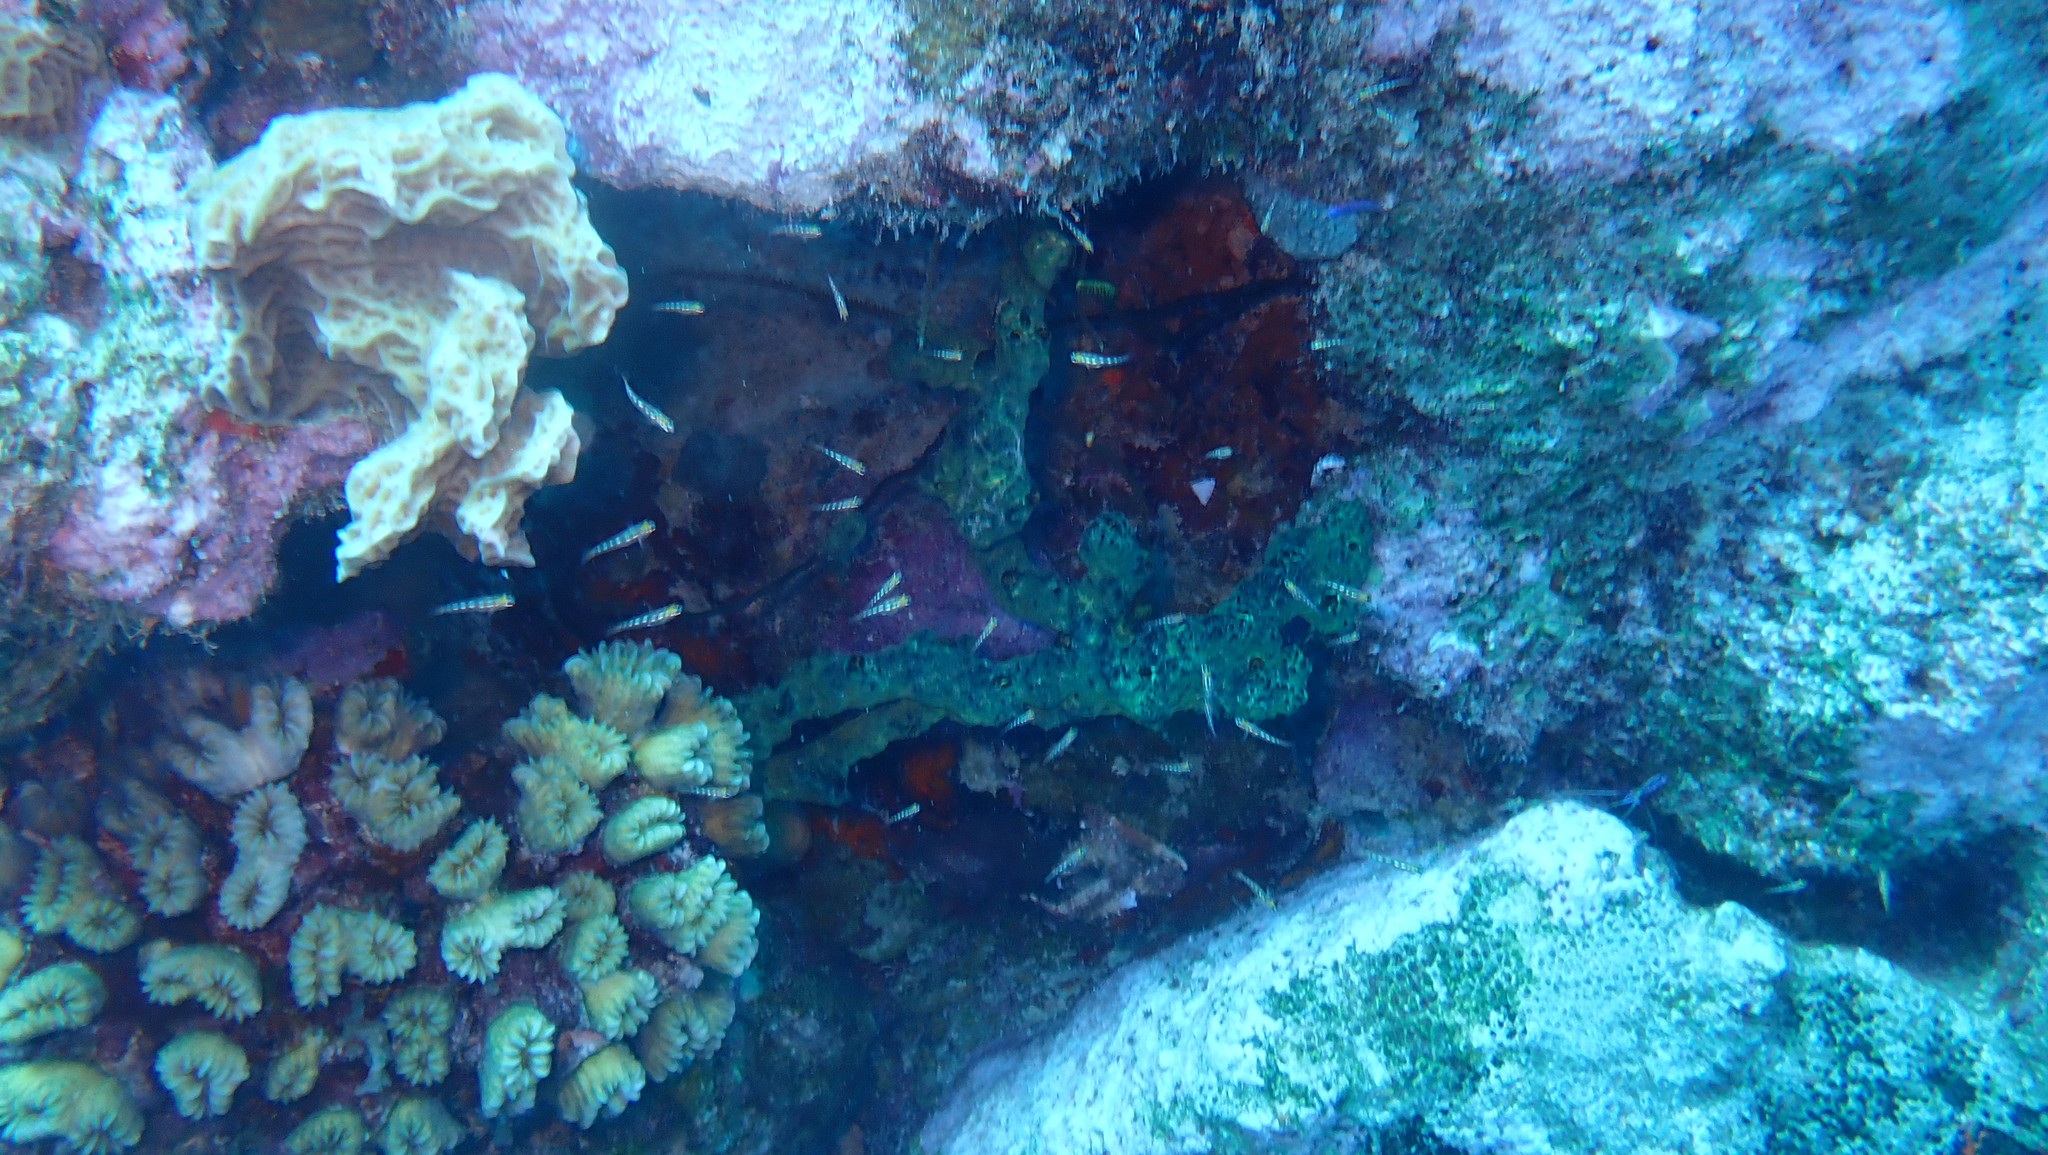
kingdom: Animalia
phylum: Cnidaria
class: Anthozoa
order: Scleractinia
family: Meandrinidae
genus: Eusmilia
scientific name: Eusmilia fastigiata
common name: Smooth flower coral
